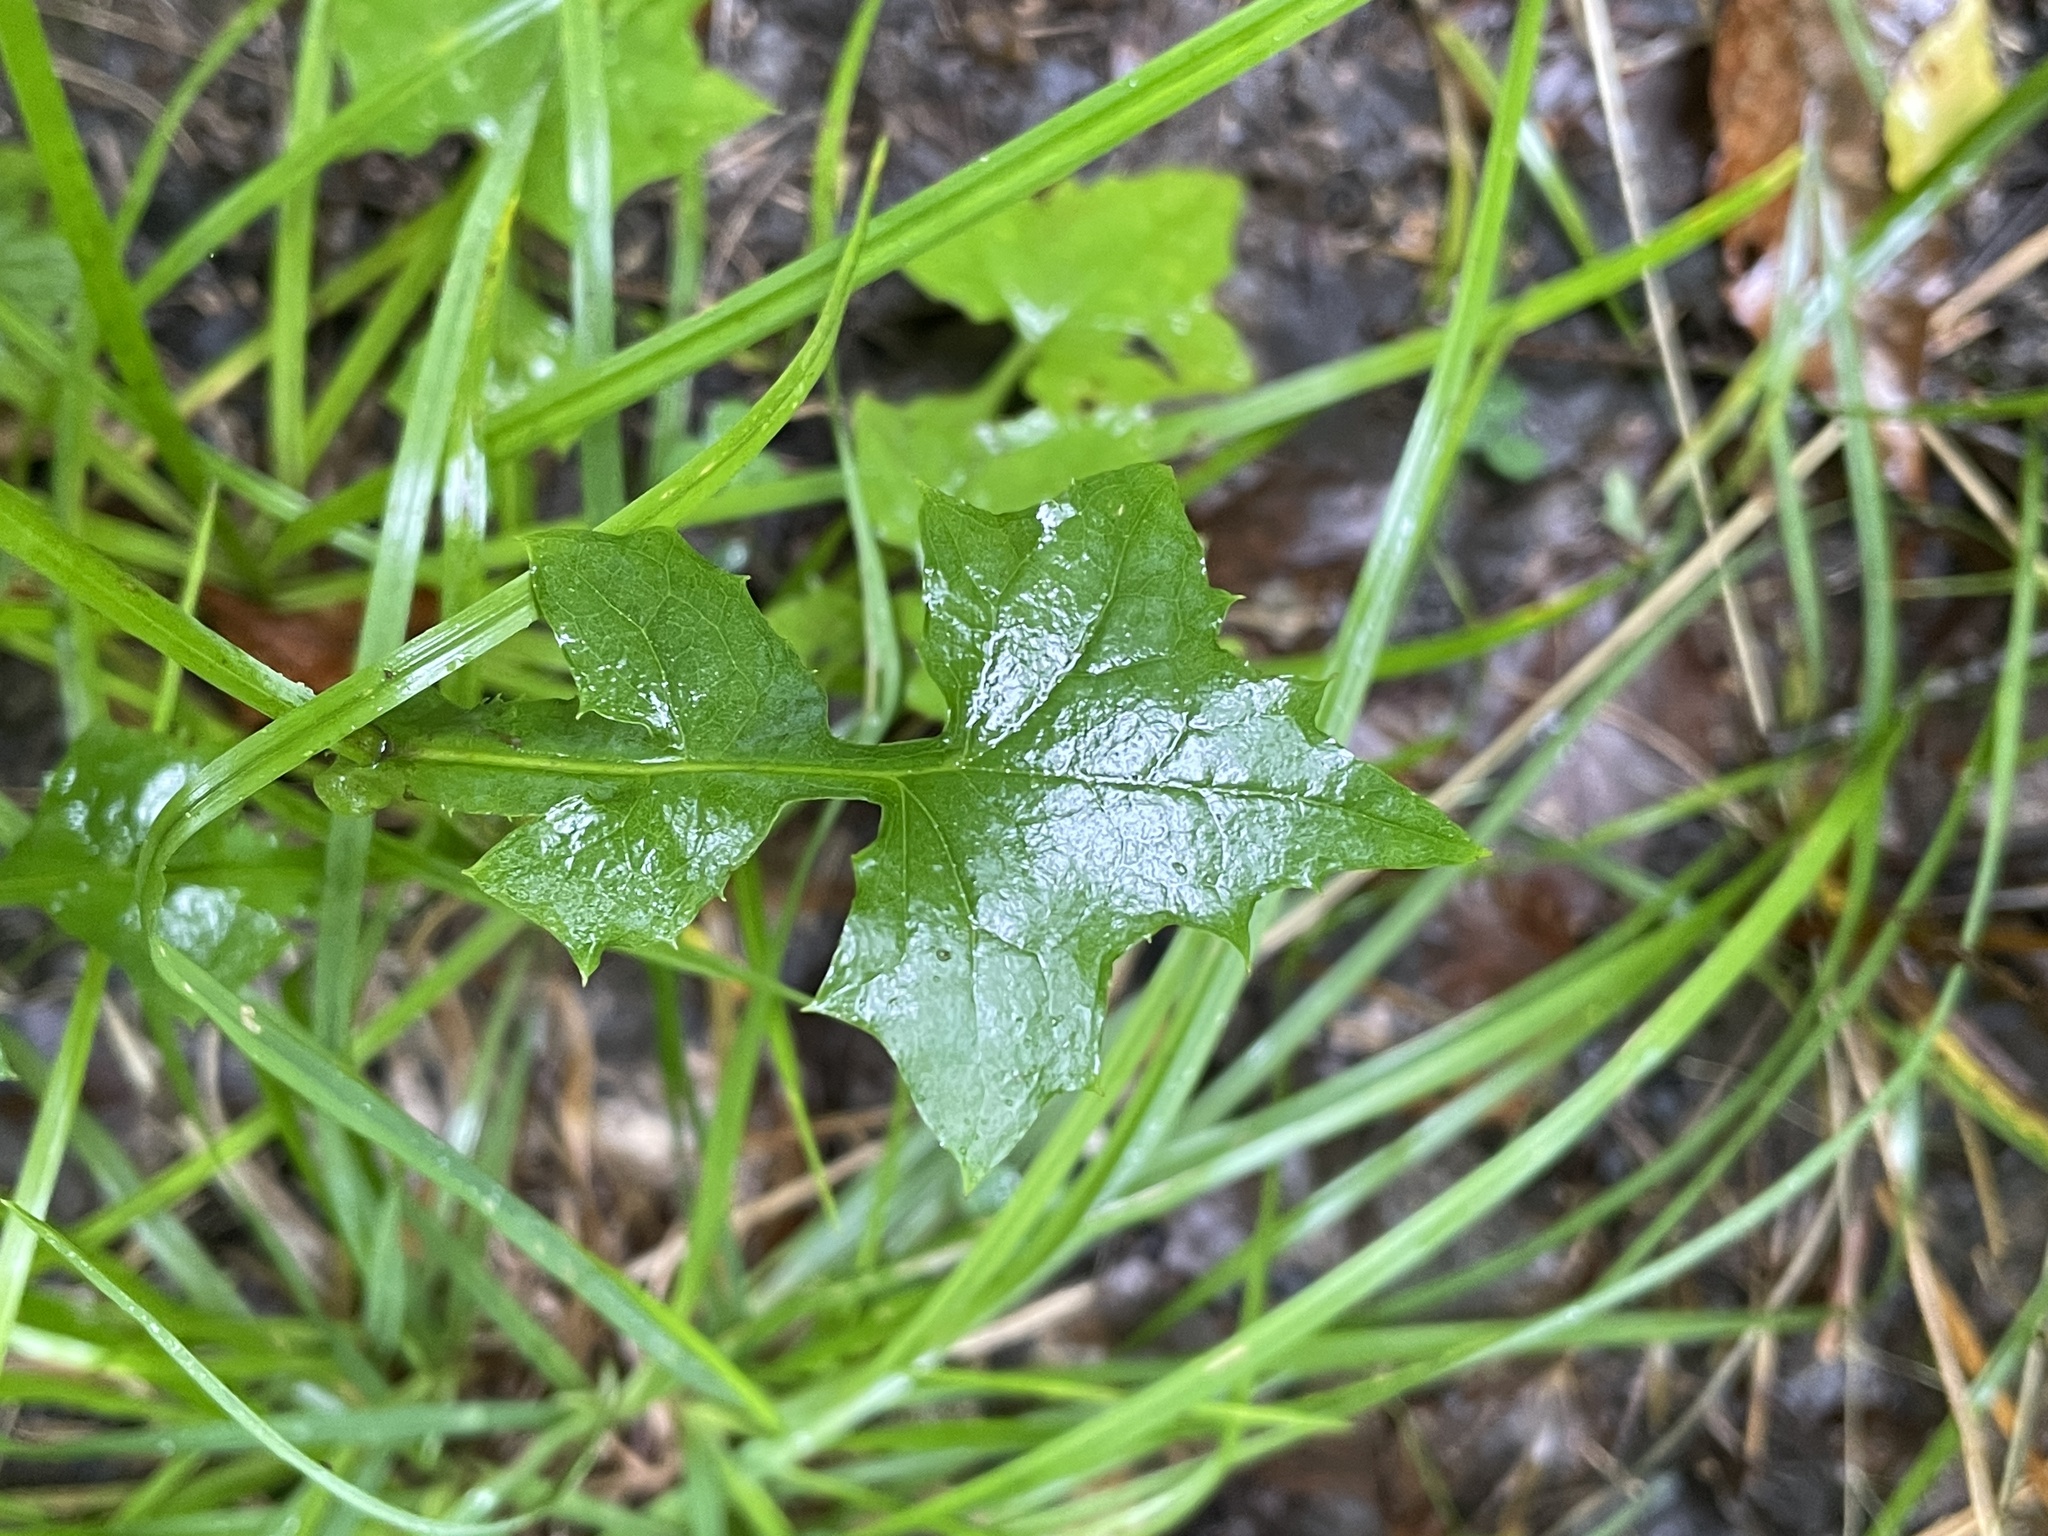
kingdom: Plantae
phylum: Tracheophyta
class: Magnoliopsida
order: Asterales
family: Asteraceae
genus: Mycelis
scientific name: Mycelis muralis
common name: Wall lettuce
